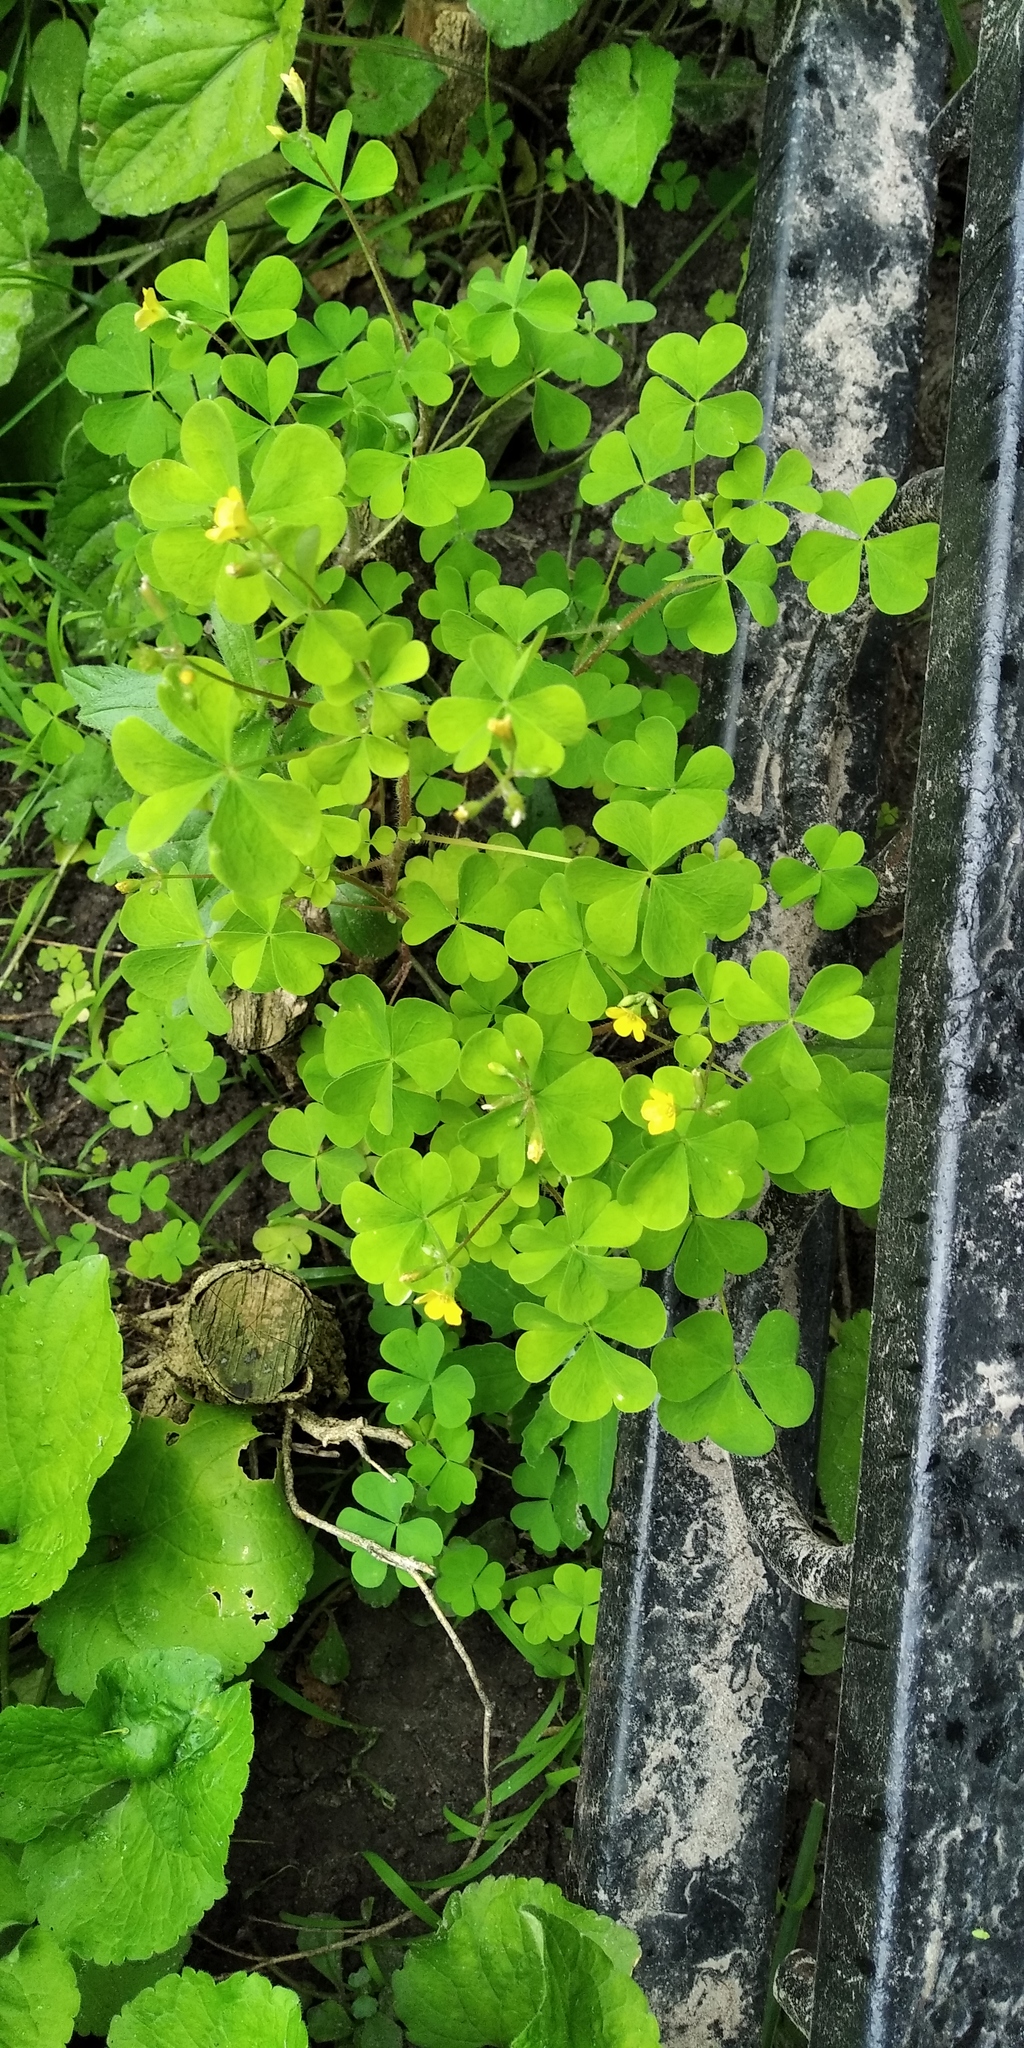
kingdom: Plantae
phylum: Tracheophyta
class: Magnoliopsida
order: Oxalidales
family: Oxalidaceae
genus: Oxalis
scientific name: Oxalis stricta
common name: Upright yellow-sorrel
